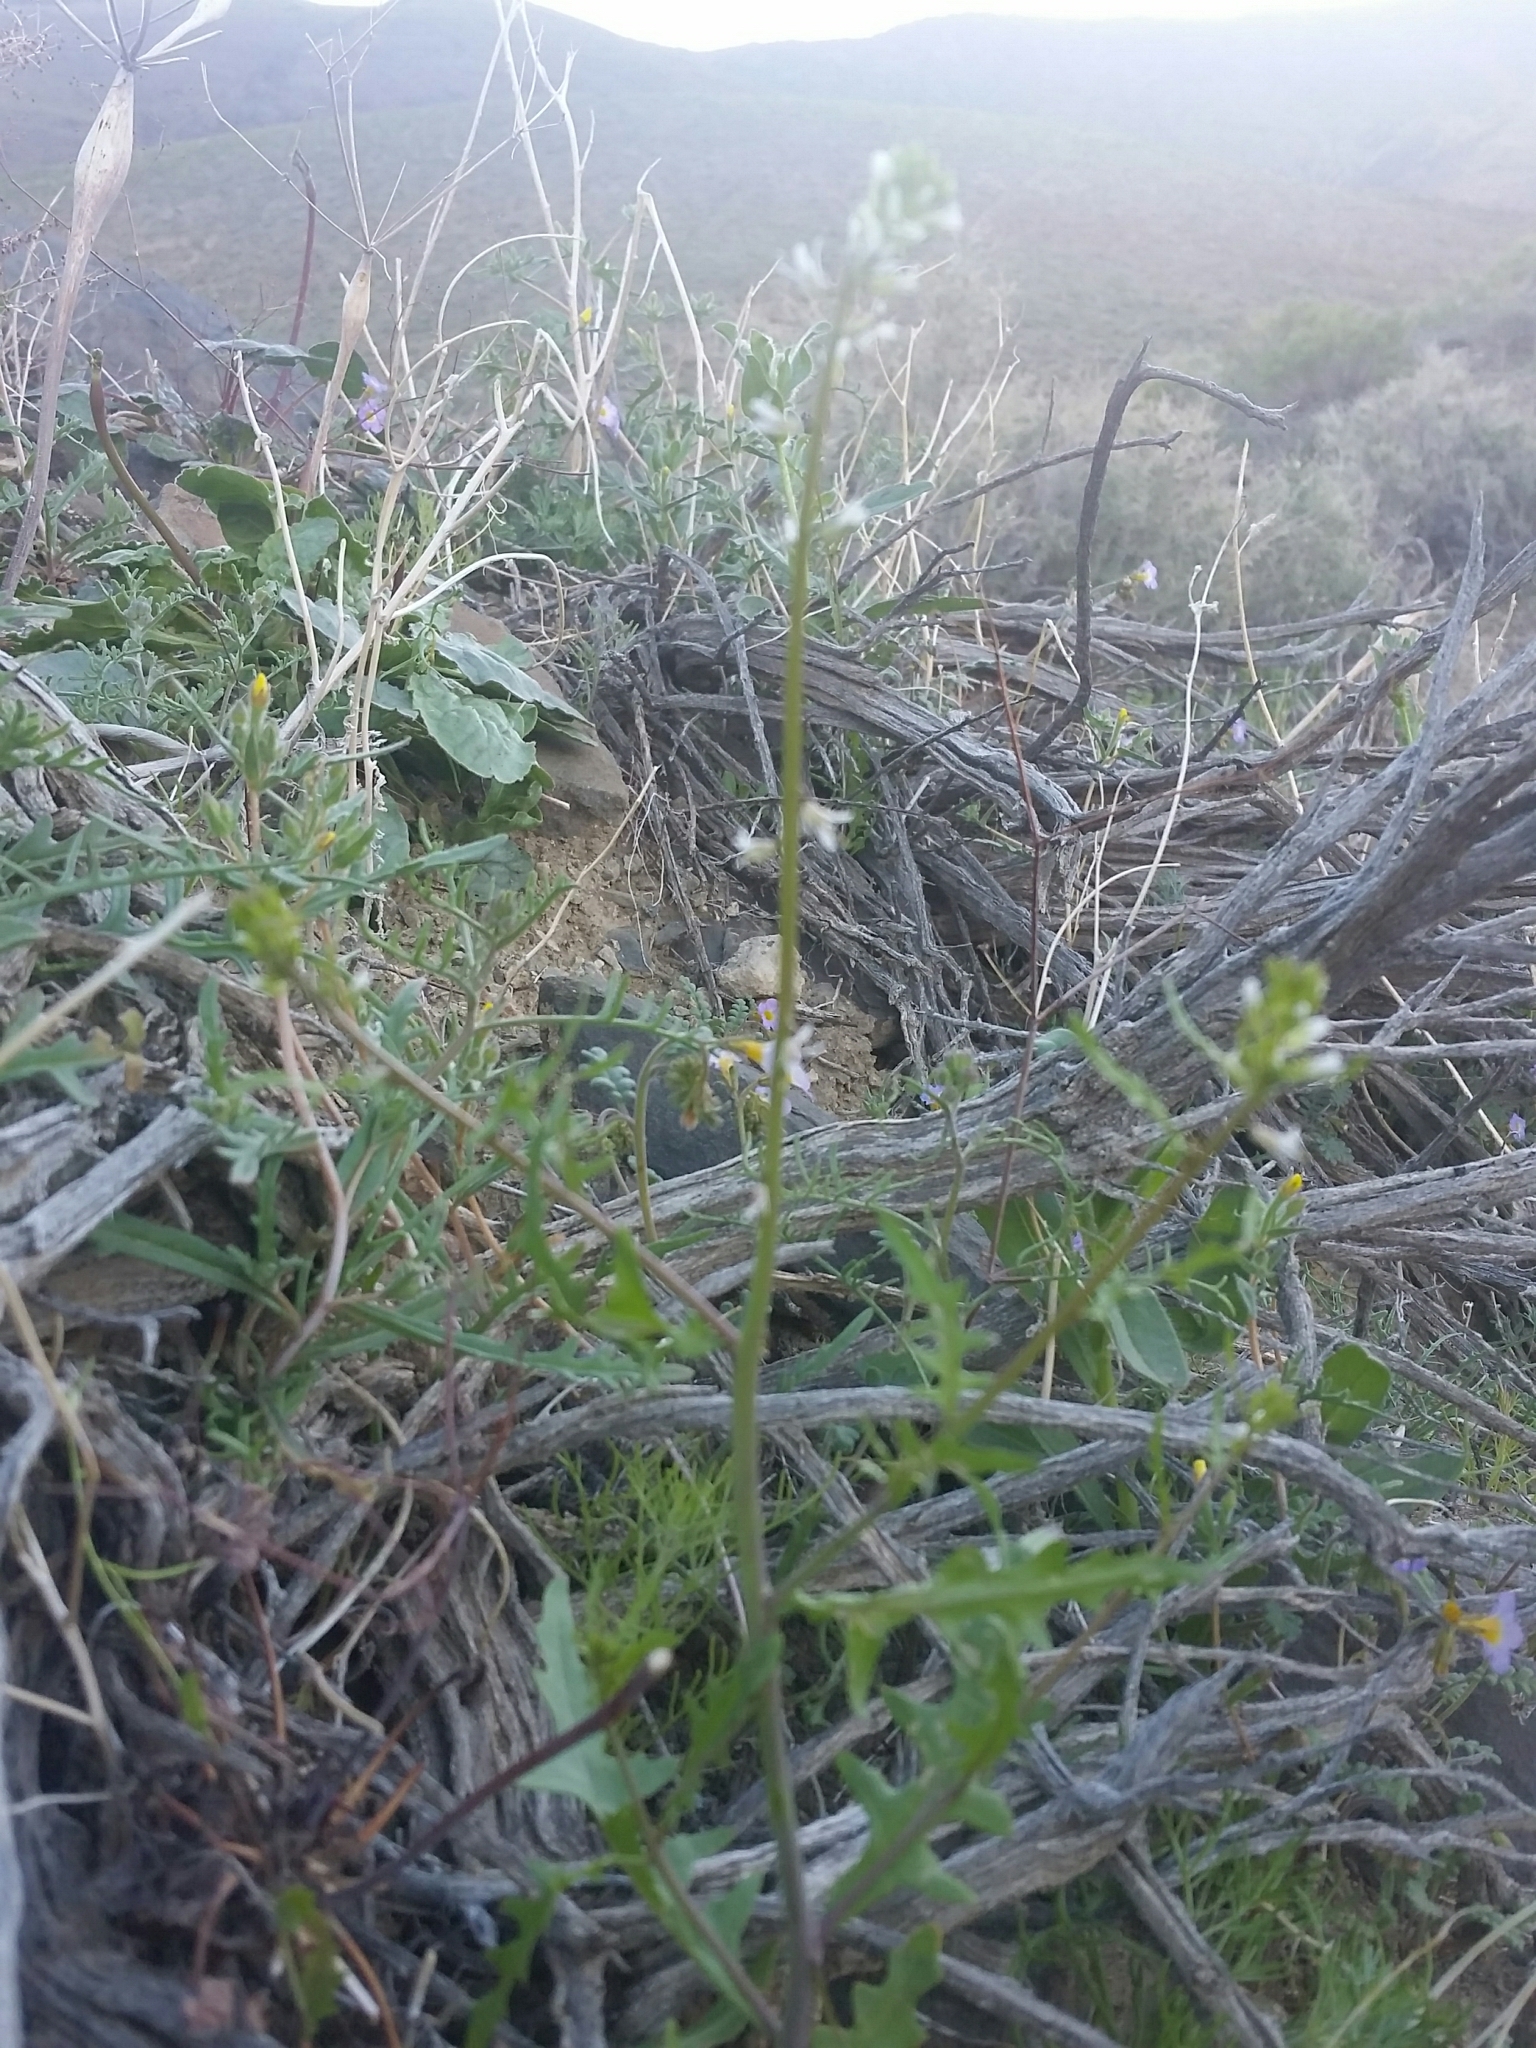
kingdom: Plantae
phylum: Tracheophyta
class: Magnoliopsida
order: Brassicales
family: Brassicaceae
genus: Streptanthus
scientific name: Streptanthus lasiophyllus
